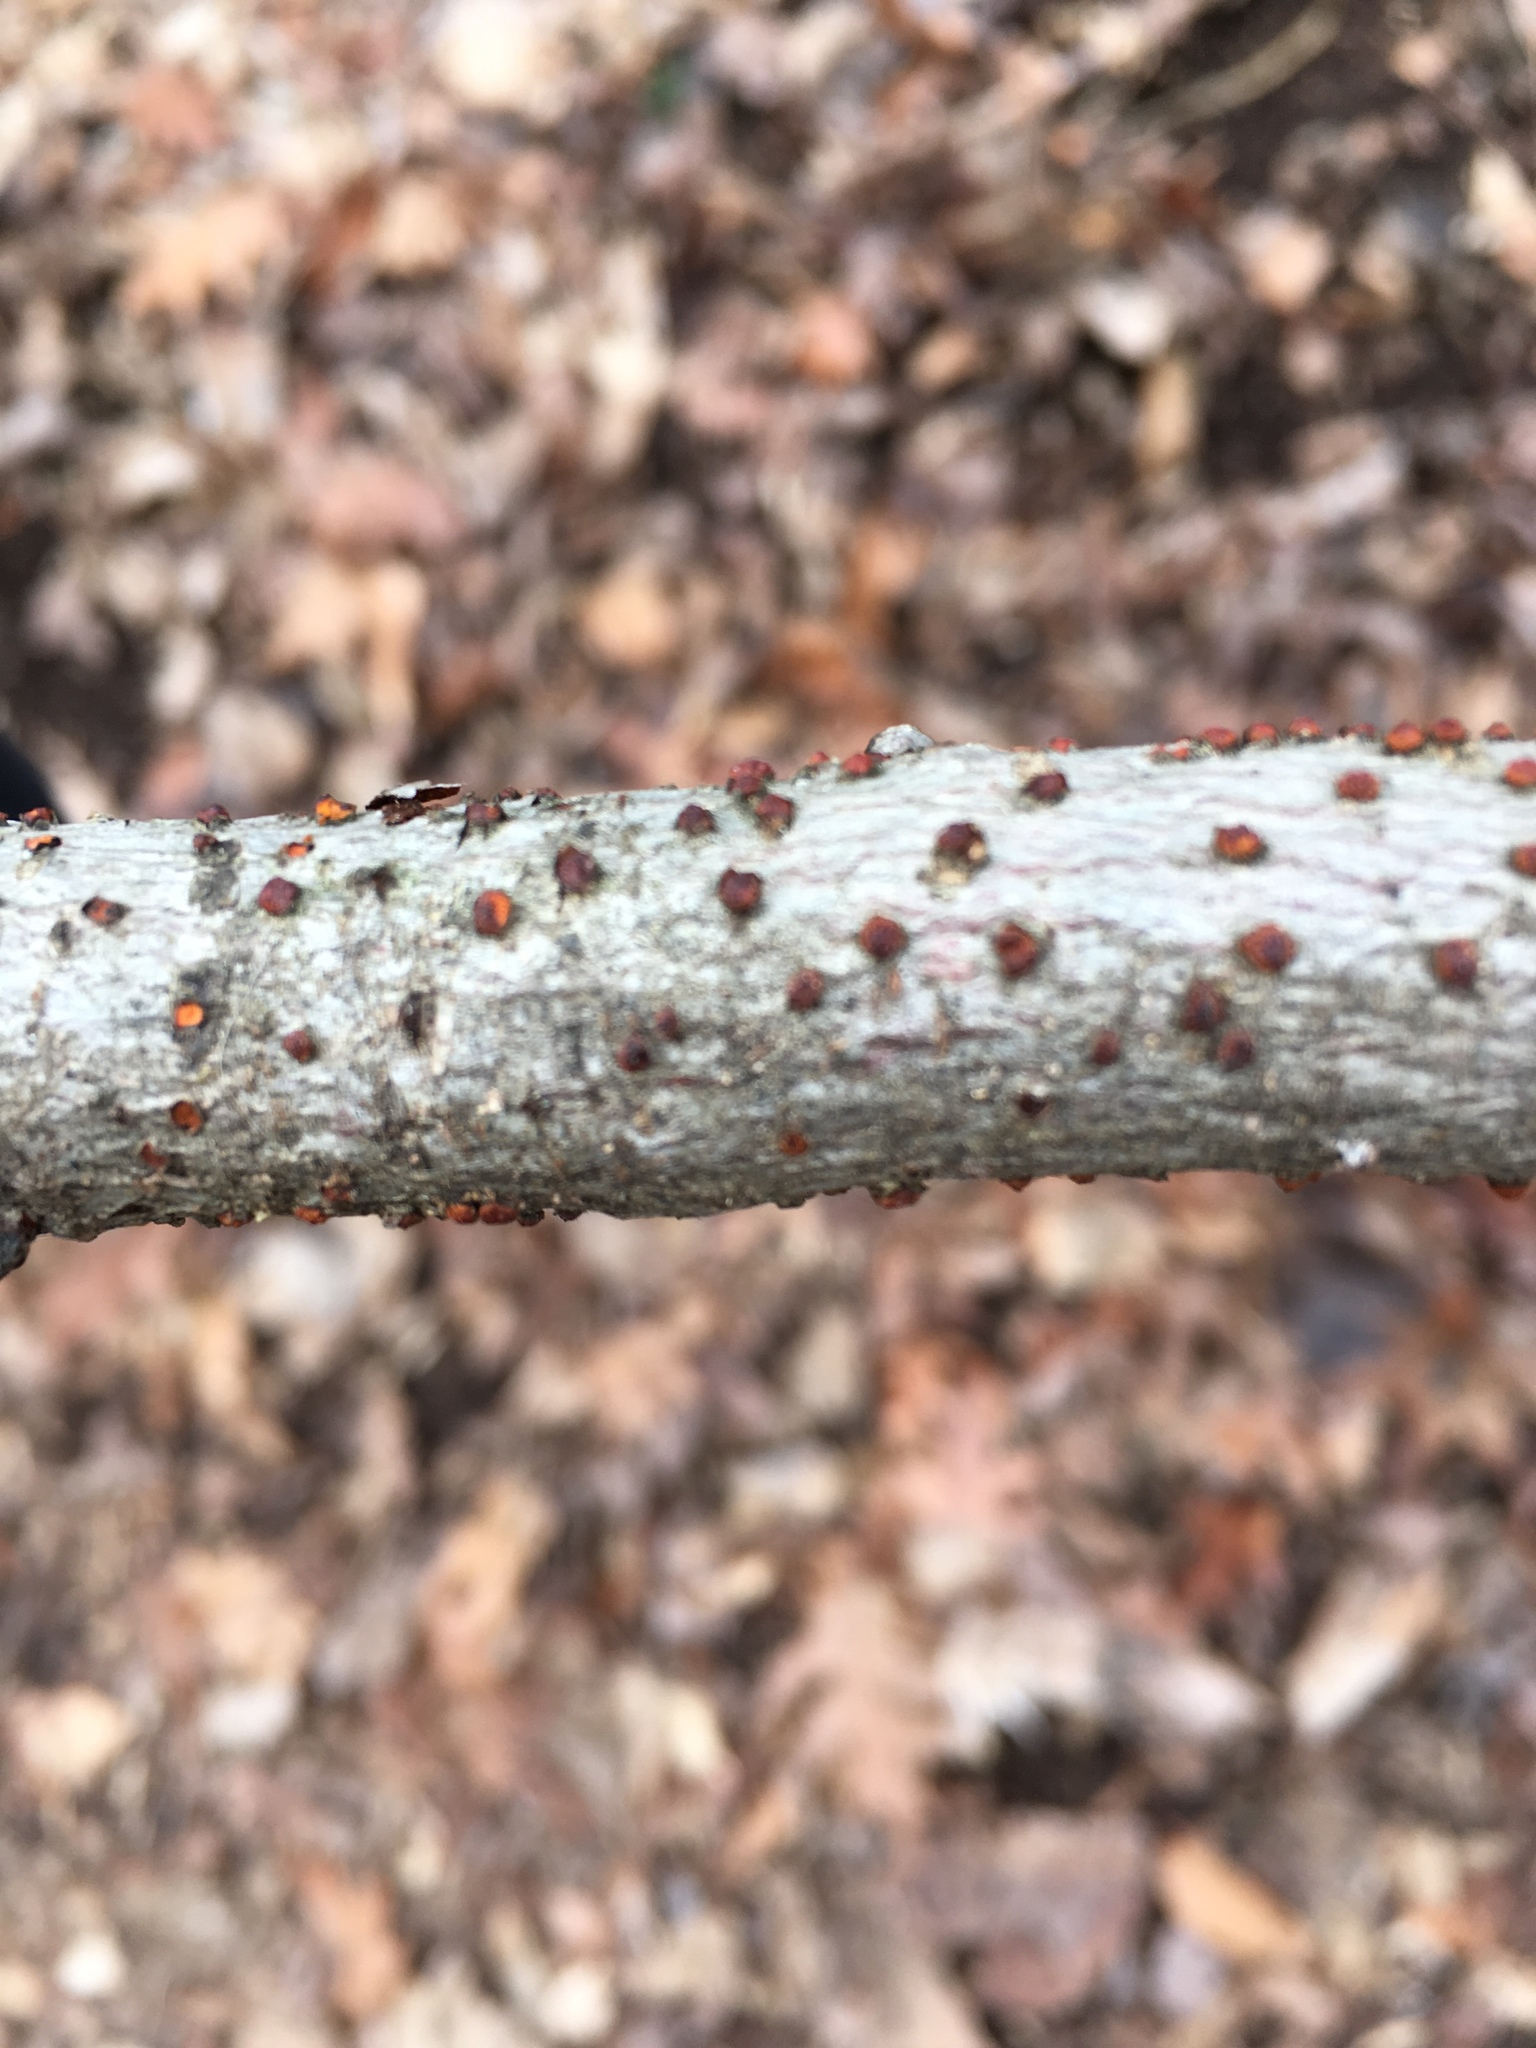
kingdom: Fungi
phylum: Ascomycota
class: Sordariomycetes
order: Diaporthales
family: Cryphonectriaceae
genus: Amphilogia
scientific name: Amphilogia gyrosa
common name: Orange hobnail canker
